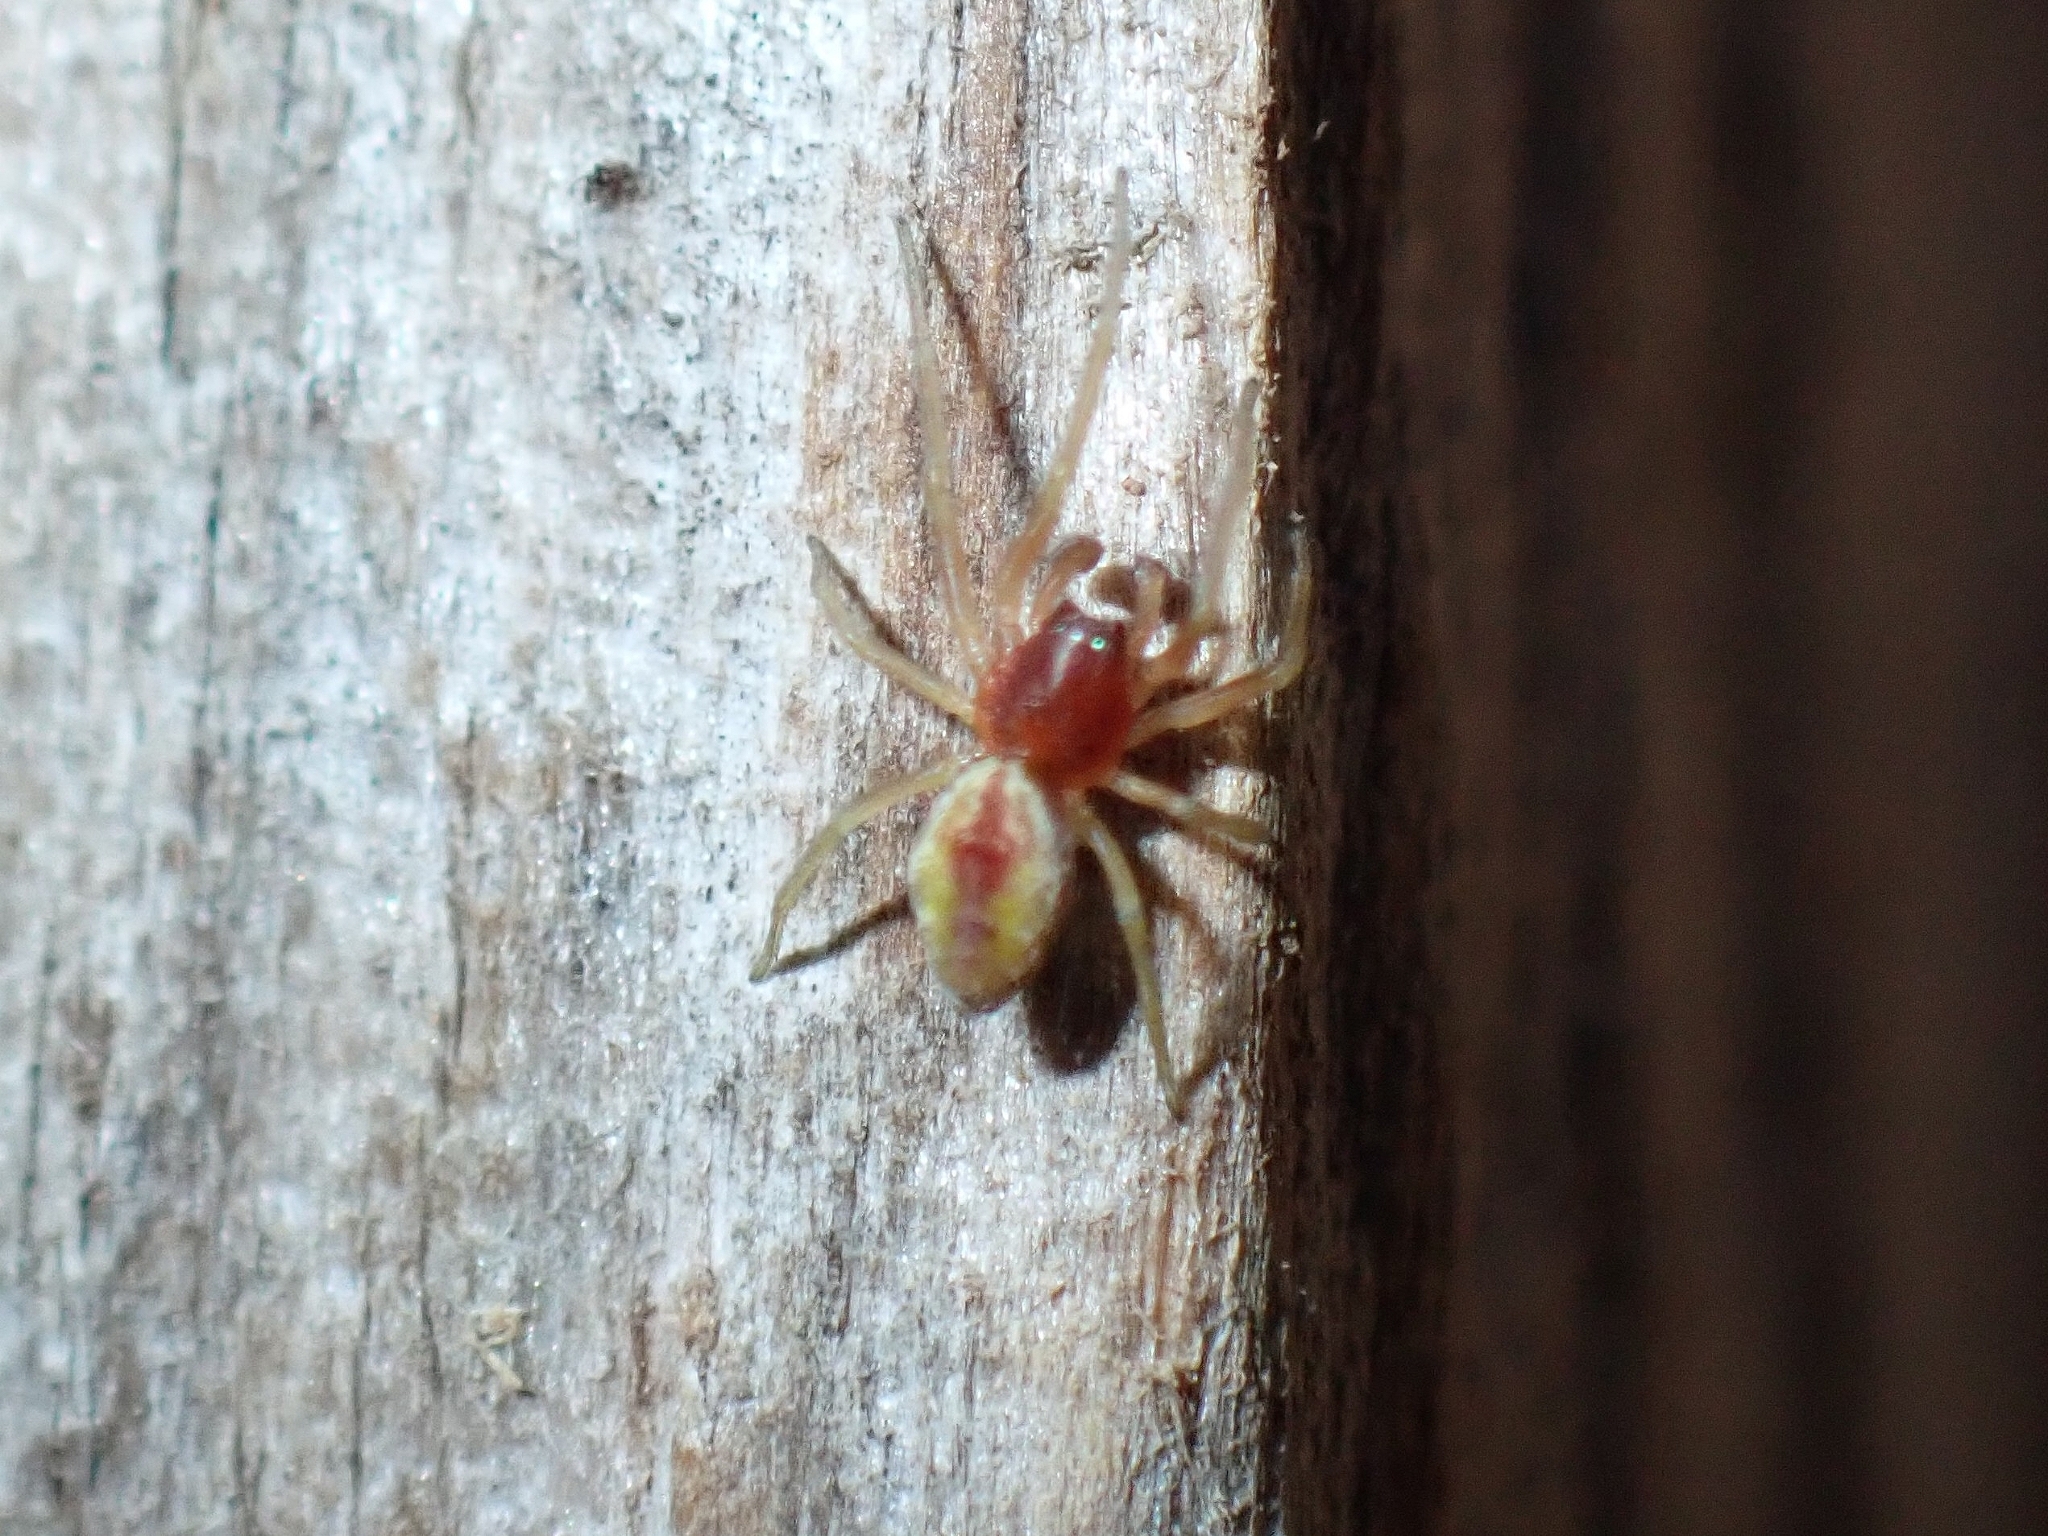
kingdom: Animalia
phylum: Arthropoda
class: Arachnida
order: Araneae
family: Dictynidae
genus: Nigma
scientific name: Nigma puella
